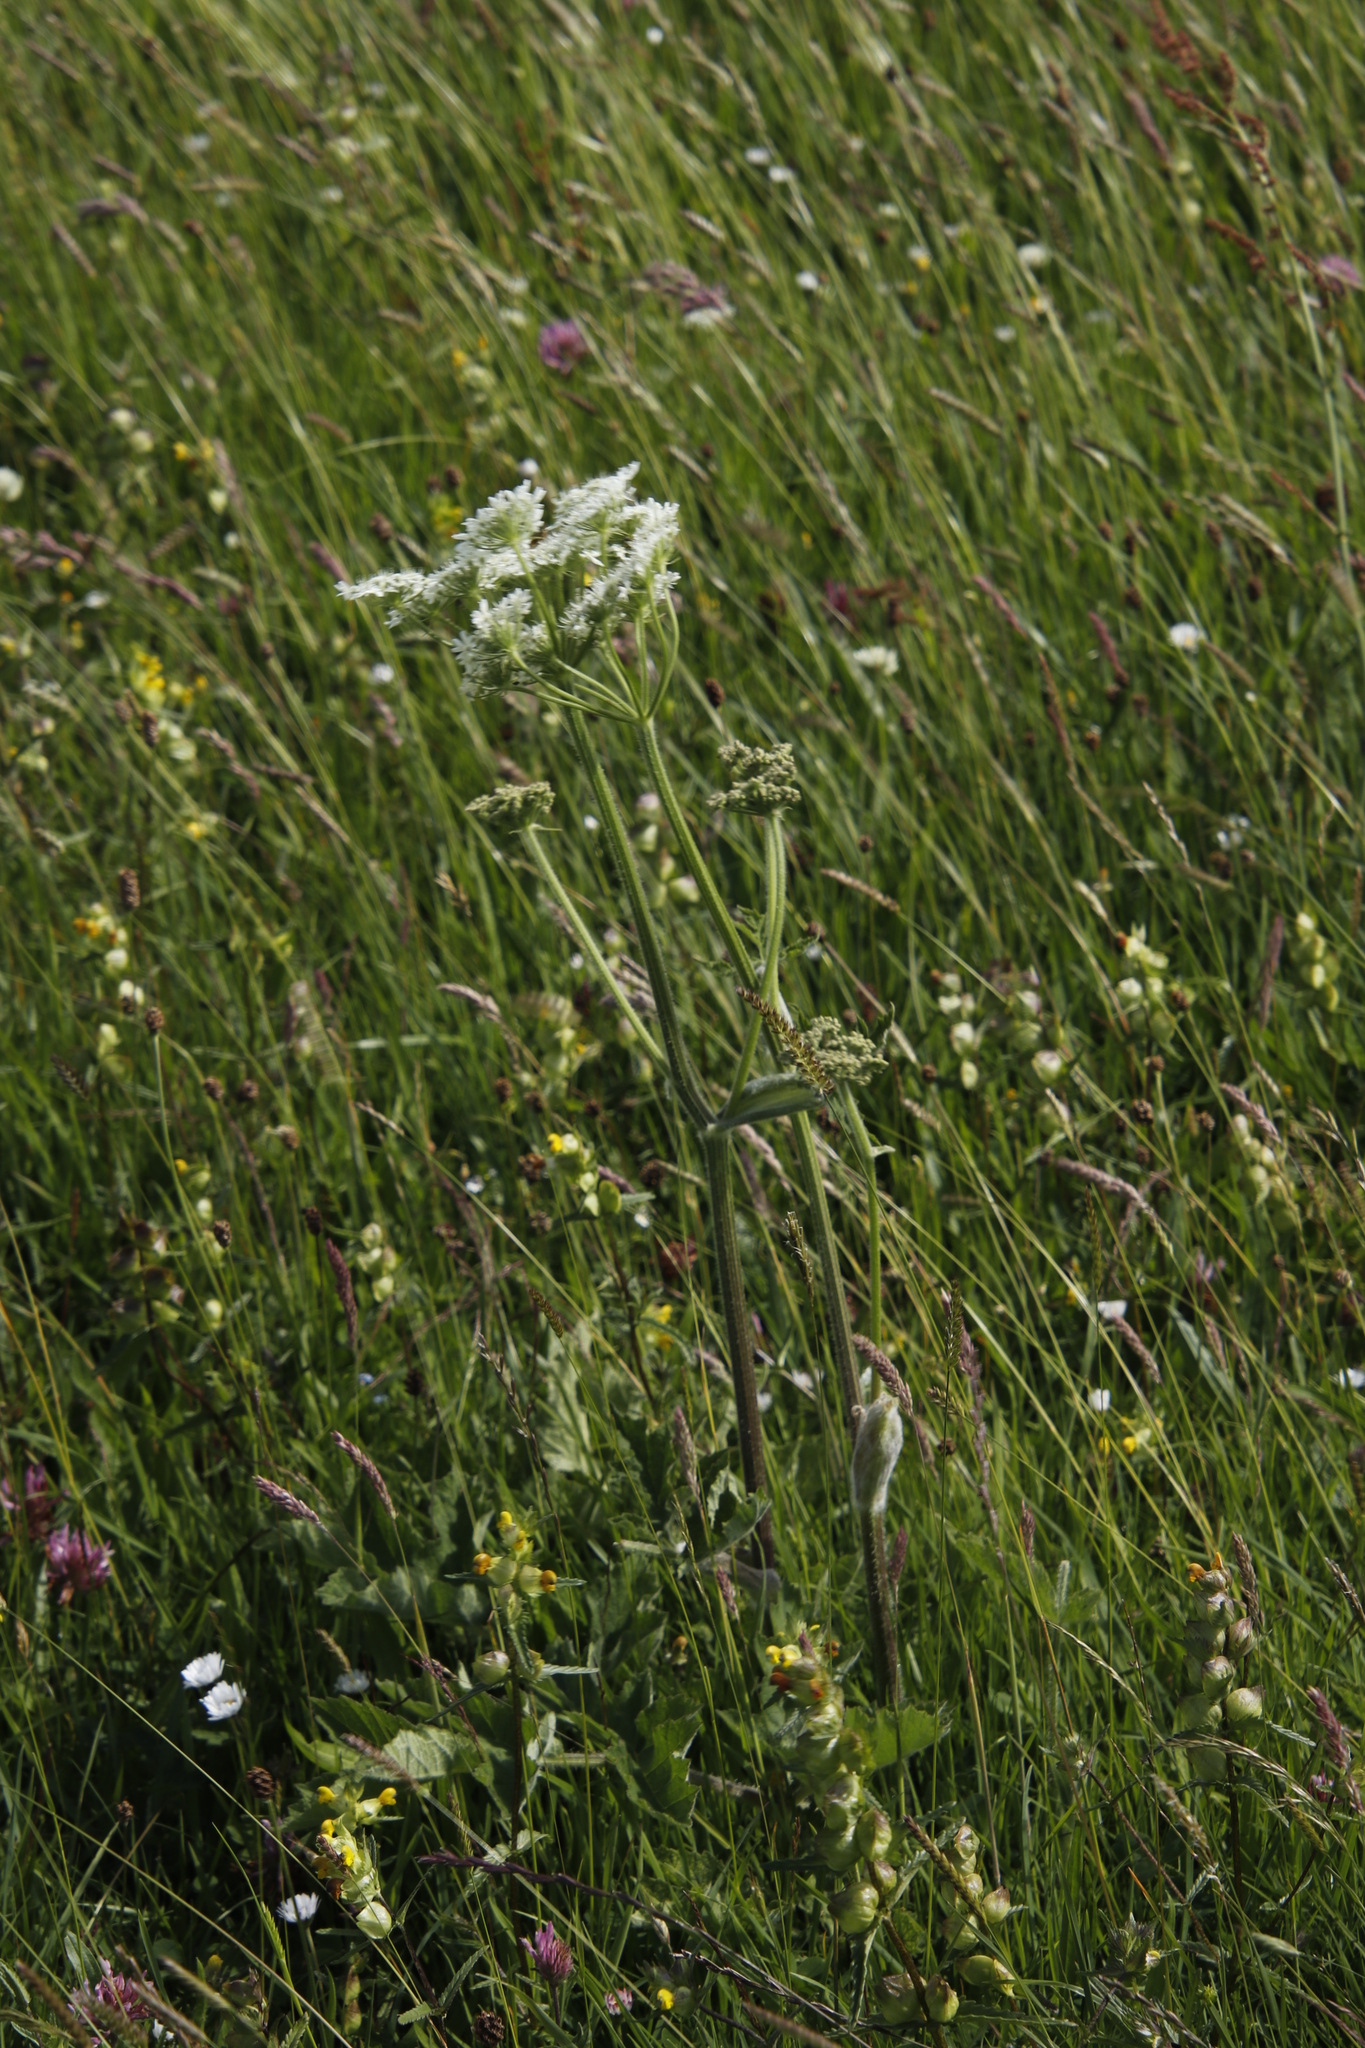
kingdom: Plantae
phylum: Tracheophyta
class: Magnoliopsida
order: Apiales
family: Apiaceae
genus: Heracleum
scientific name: Heracleum sphondylium
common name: Hogweed
